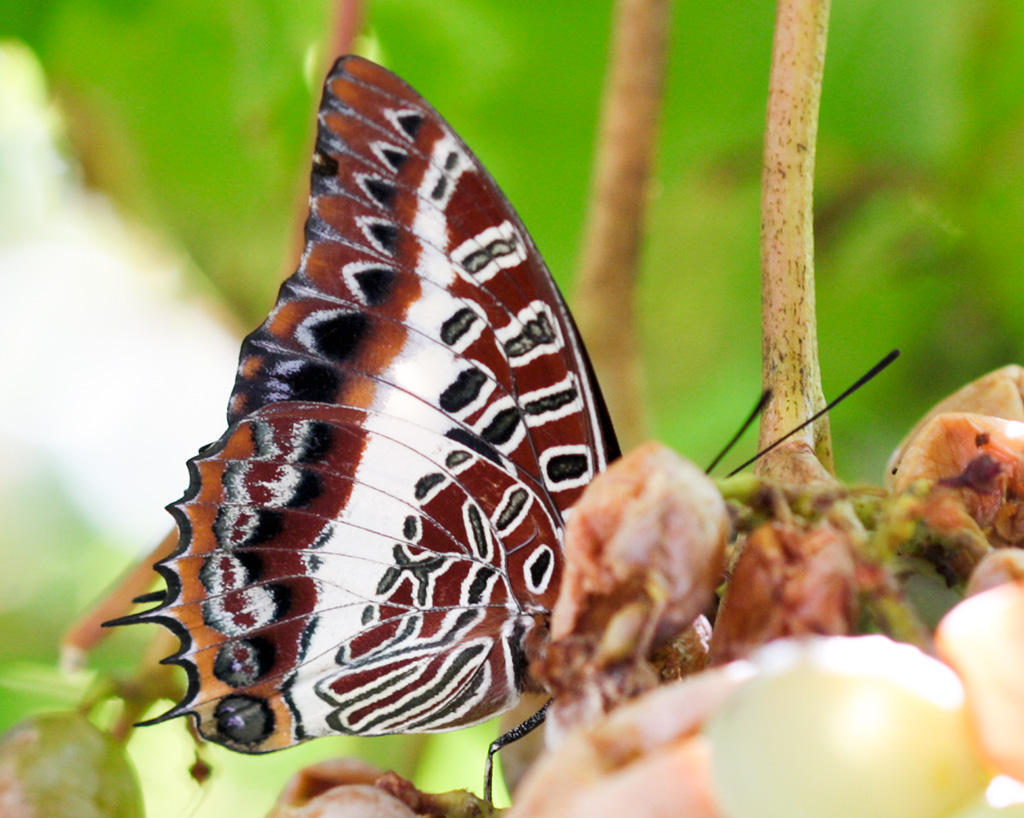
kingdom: Animalia
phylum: Arthropoda
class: Insecta
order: Lepidoptera
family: Nymphalidae
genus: Charaxes
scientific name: Charaxes brutus
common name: White-barred charaxes
